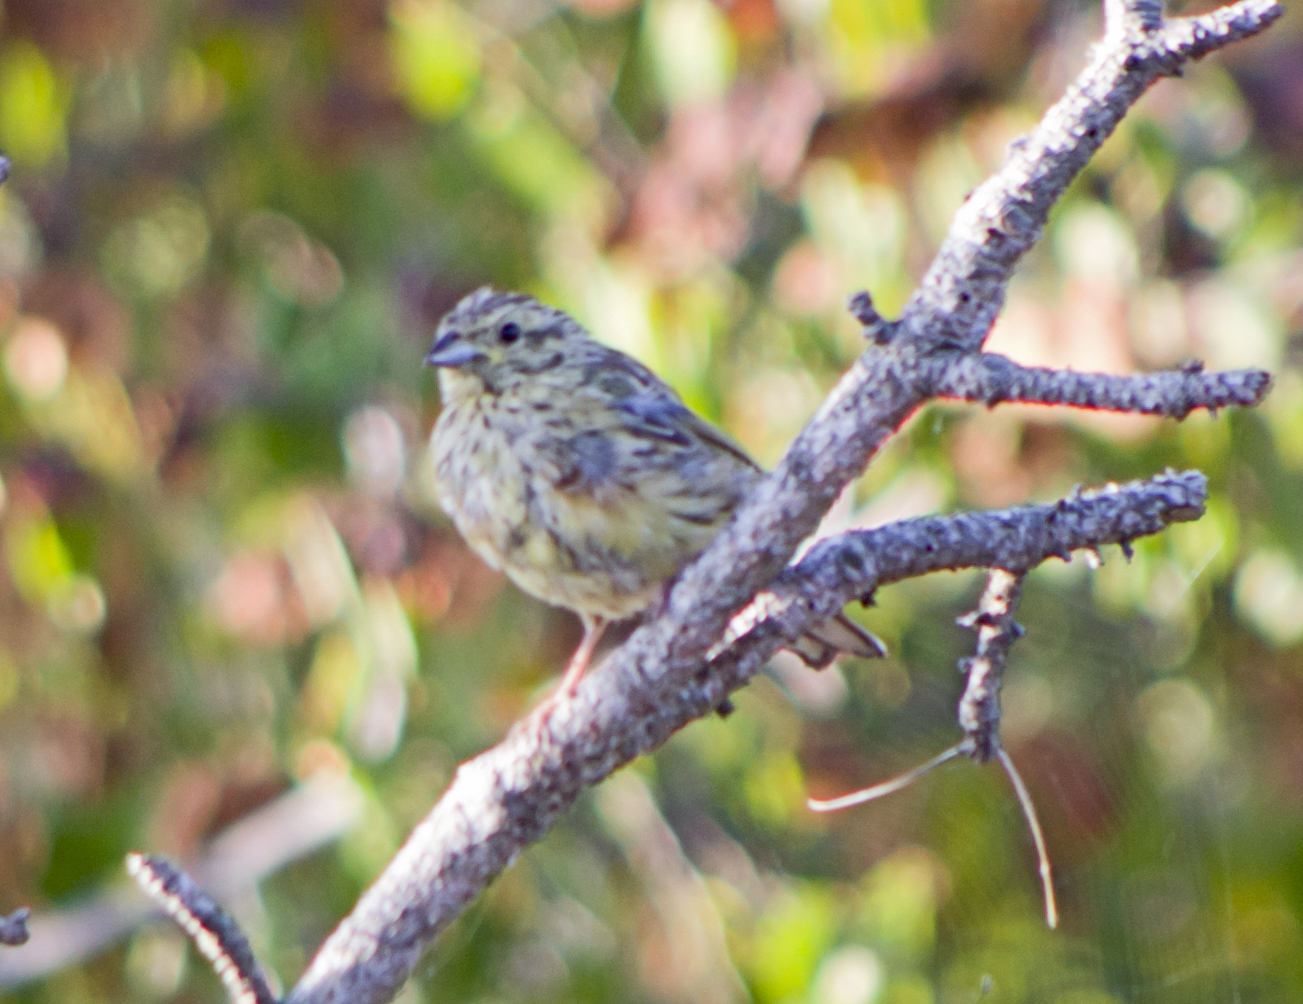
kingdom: Animalia
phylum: Chordata
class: Aves
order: Passeriformes
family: Emberizidae
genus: Emberiza
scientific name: Emberiza cirlus
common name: Cirl bunting
